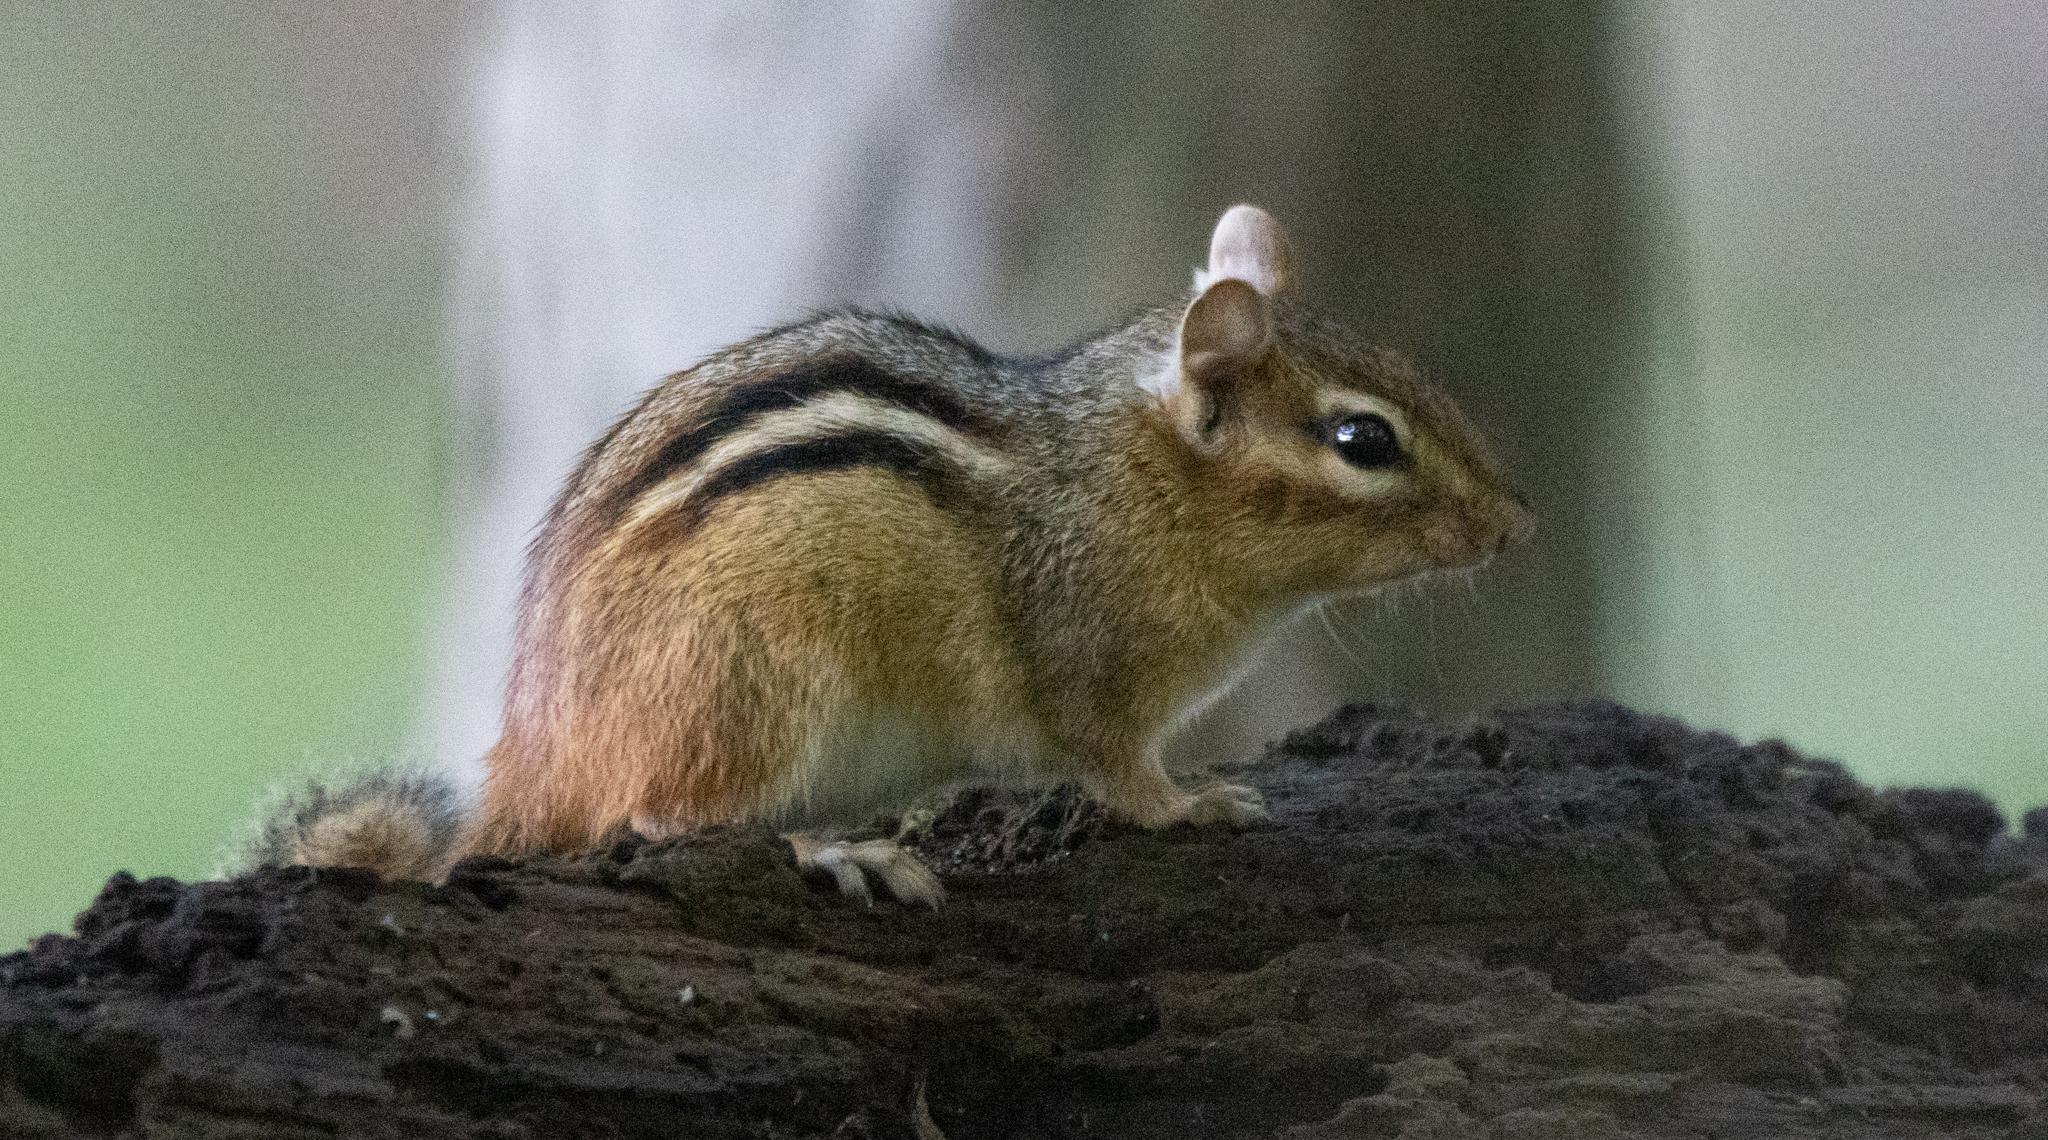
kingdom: Animalia
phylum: Chordata
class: Mammalia
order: Rodentia
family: Sciuridae
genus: Tamias
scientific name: Tamias striatus
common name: Eastern chipmunk
